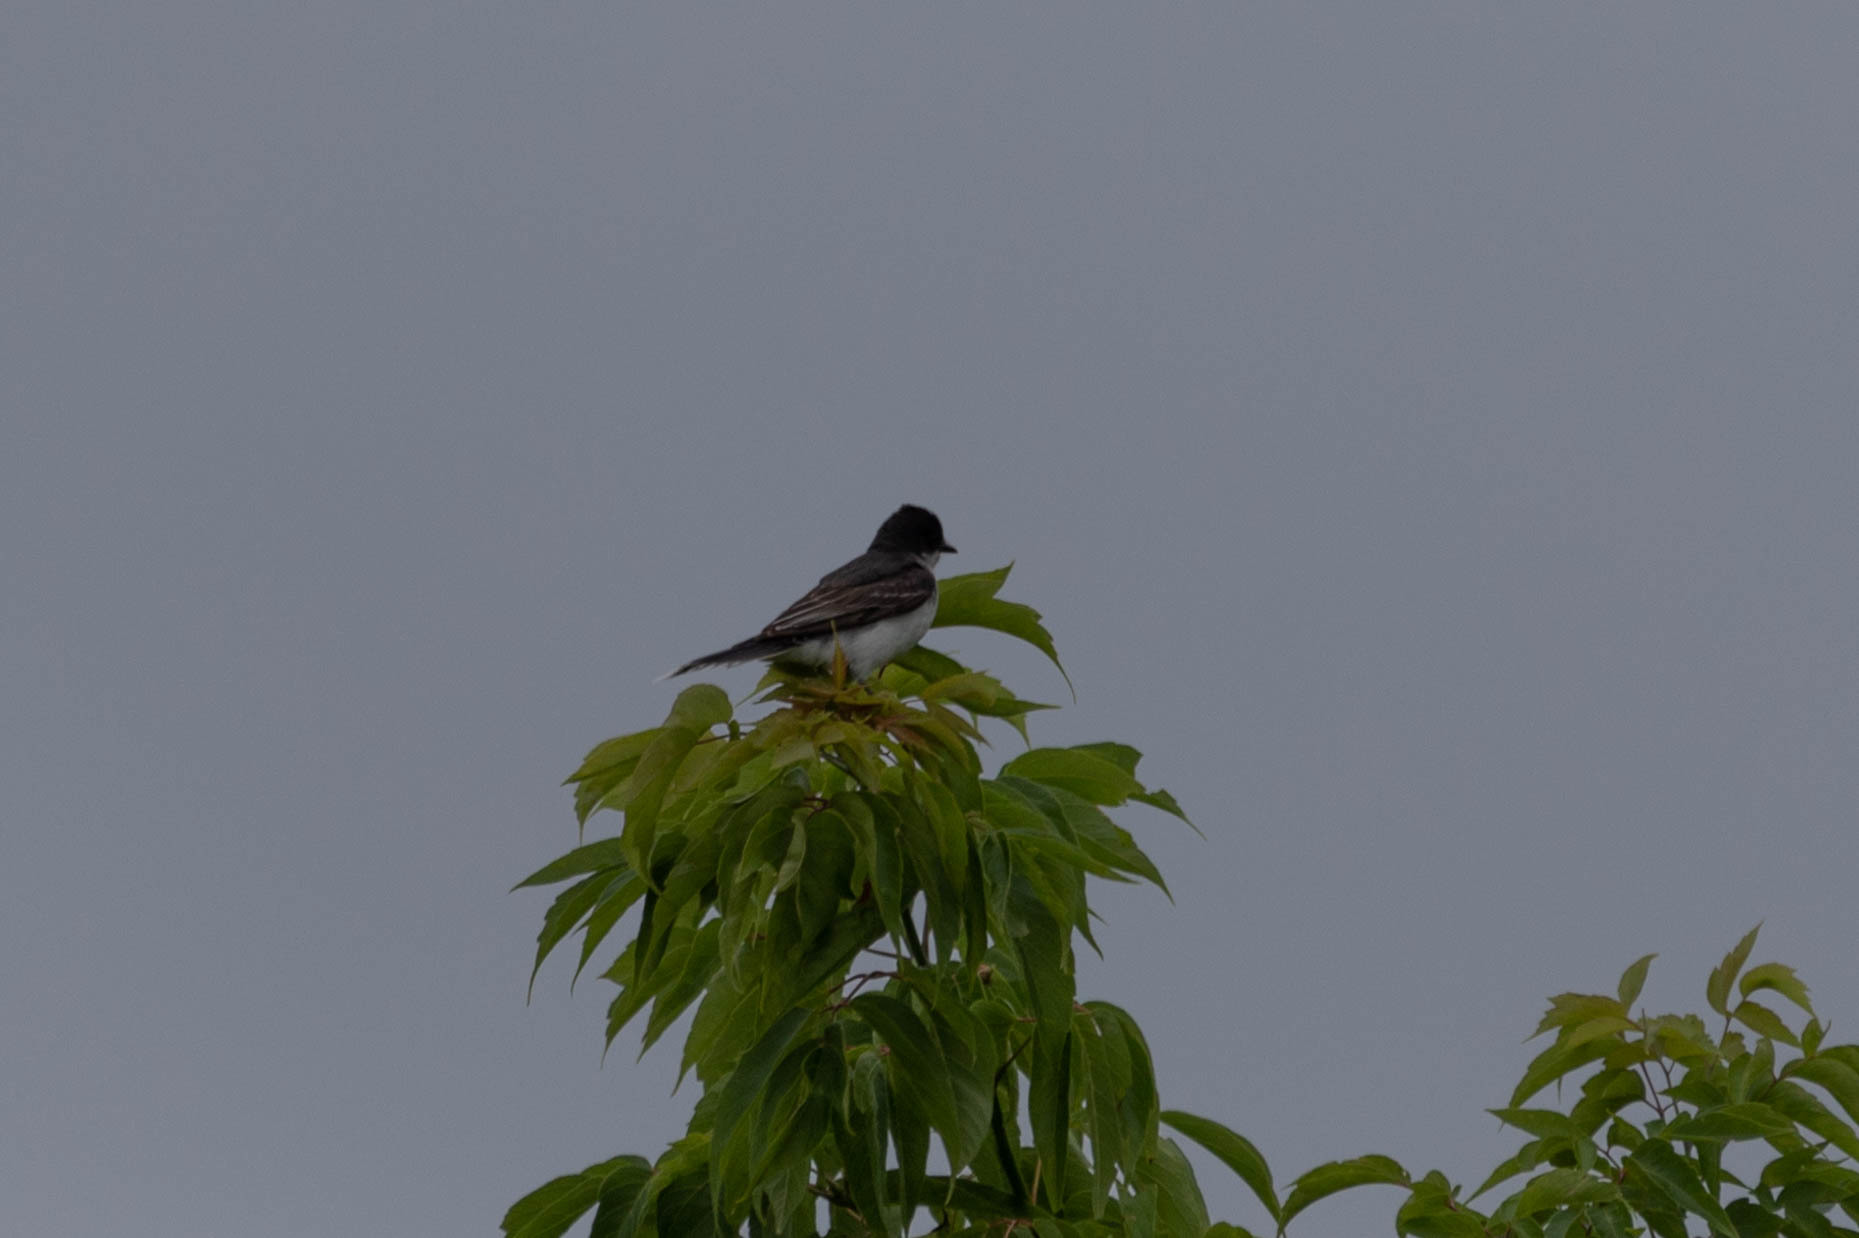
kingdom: Animalia
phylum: Chordata
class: Aves
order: Passeriformes
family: Tyrannidae
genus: Tyrannus
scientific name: Tyrannus tyrannus
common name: Eastern kingbird
